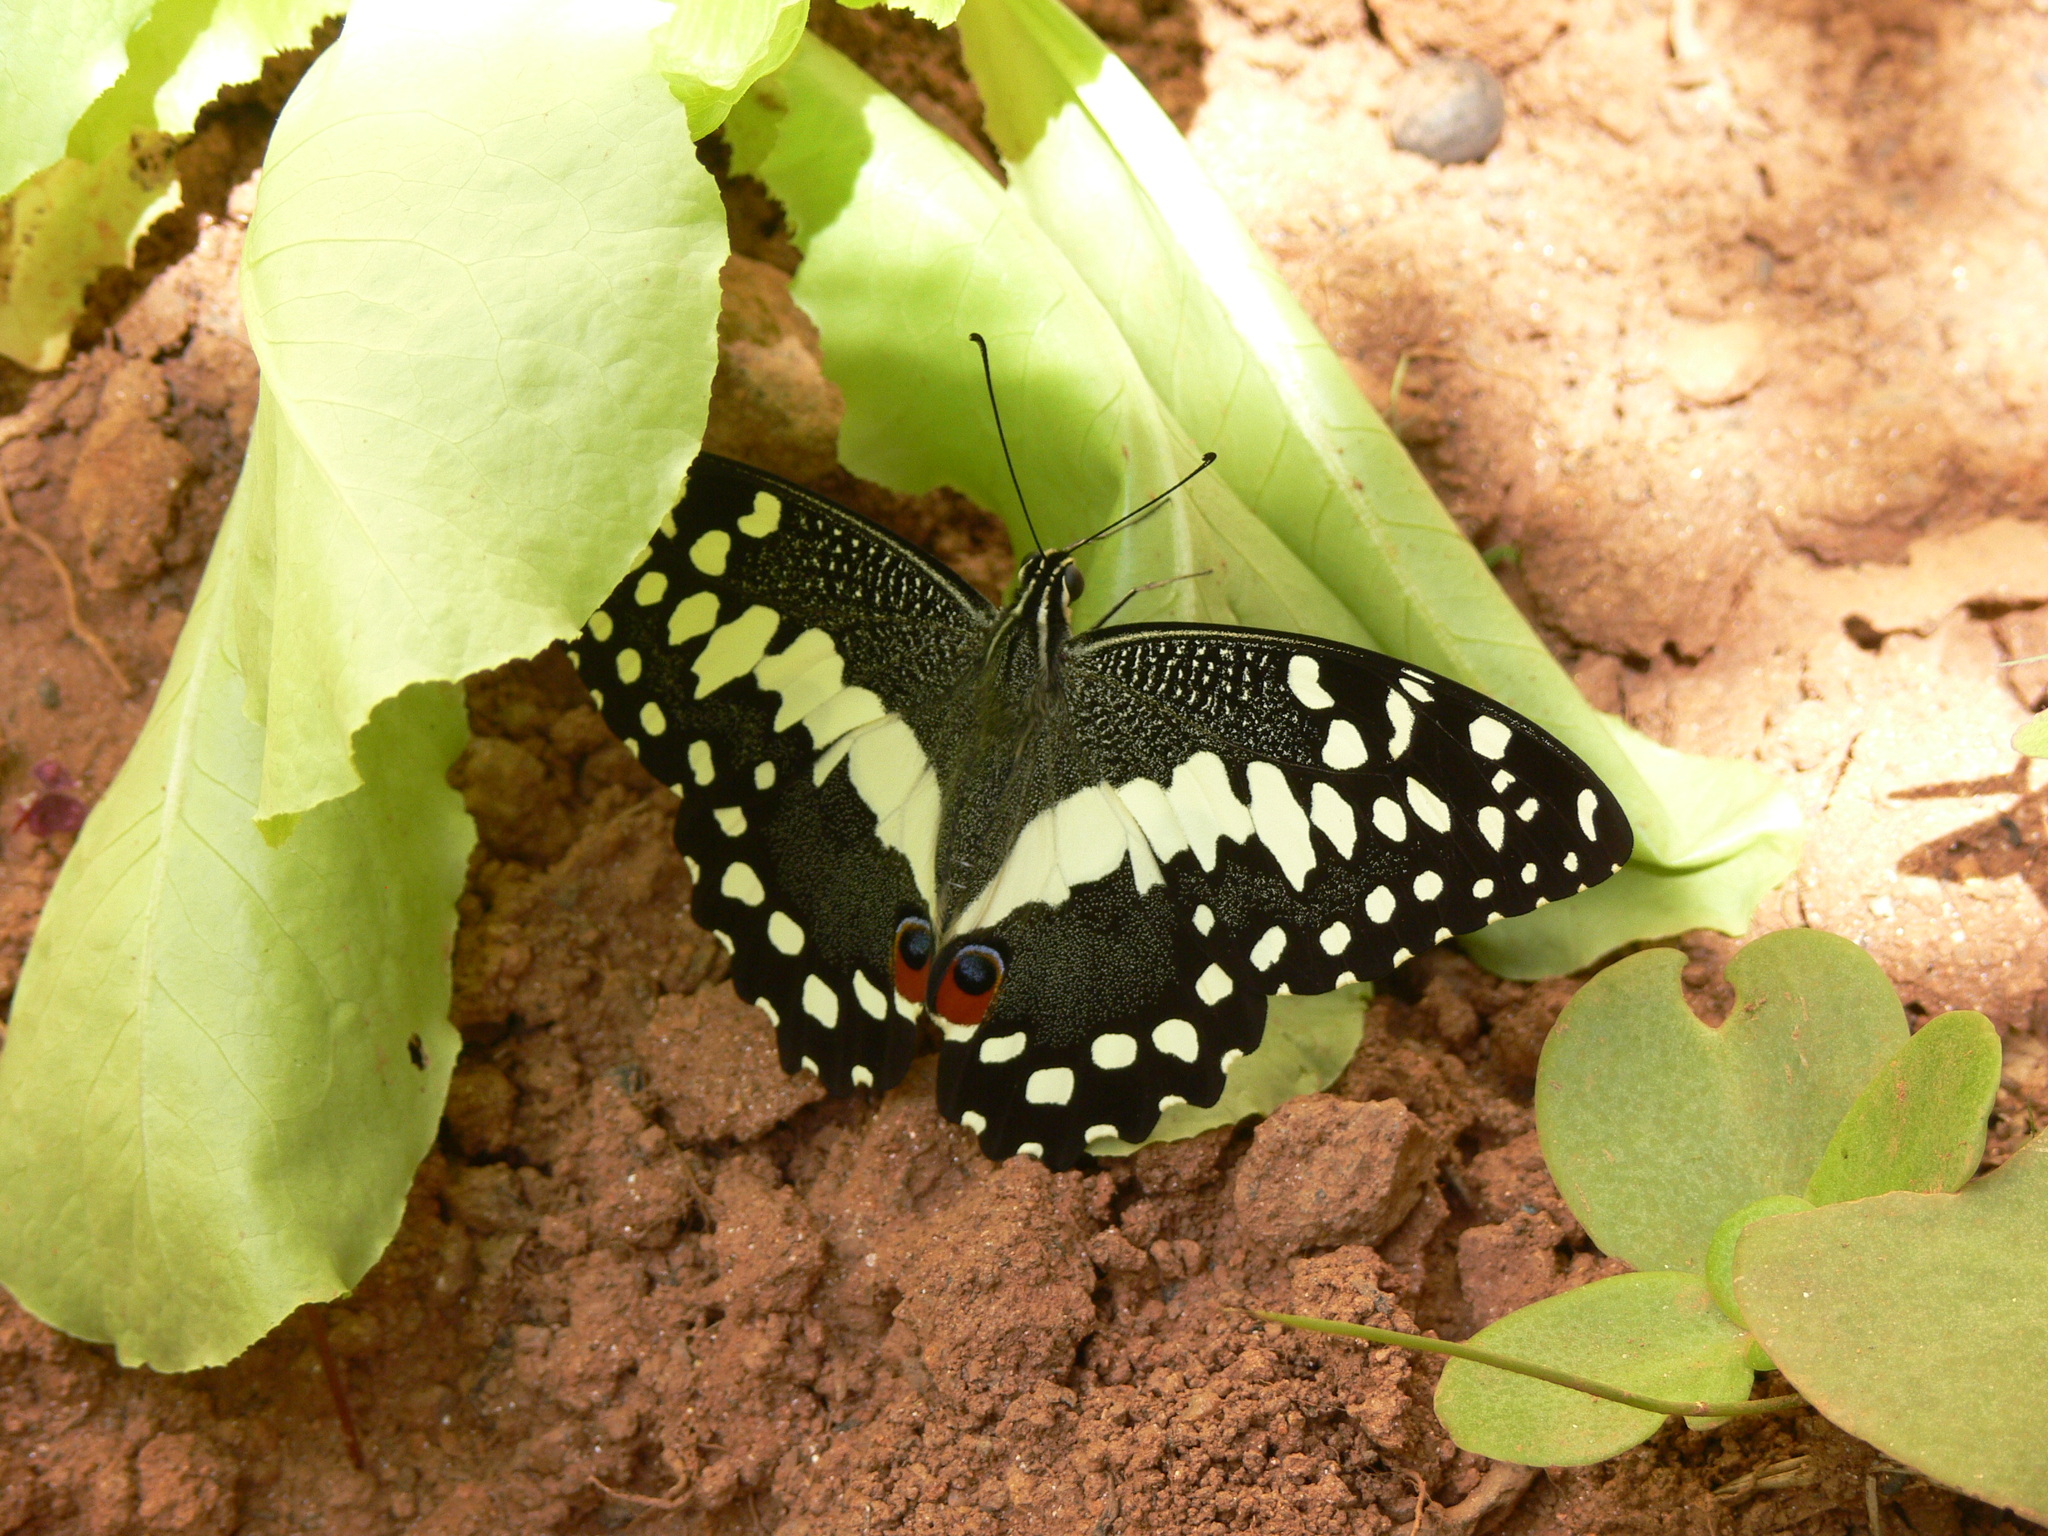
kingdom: Animalia
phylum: Arthropoda
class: Insecta
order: Lepidoptera
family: Papilionidae
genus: Papilio
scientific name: Papilio demodocus
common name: Christmas butterfly
